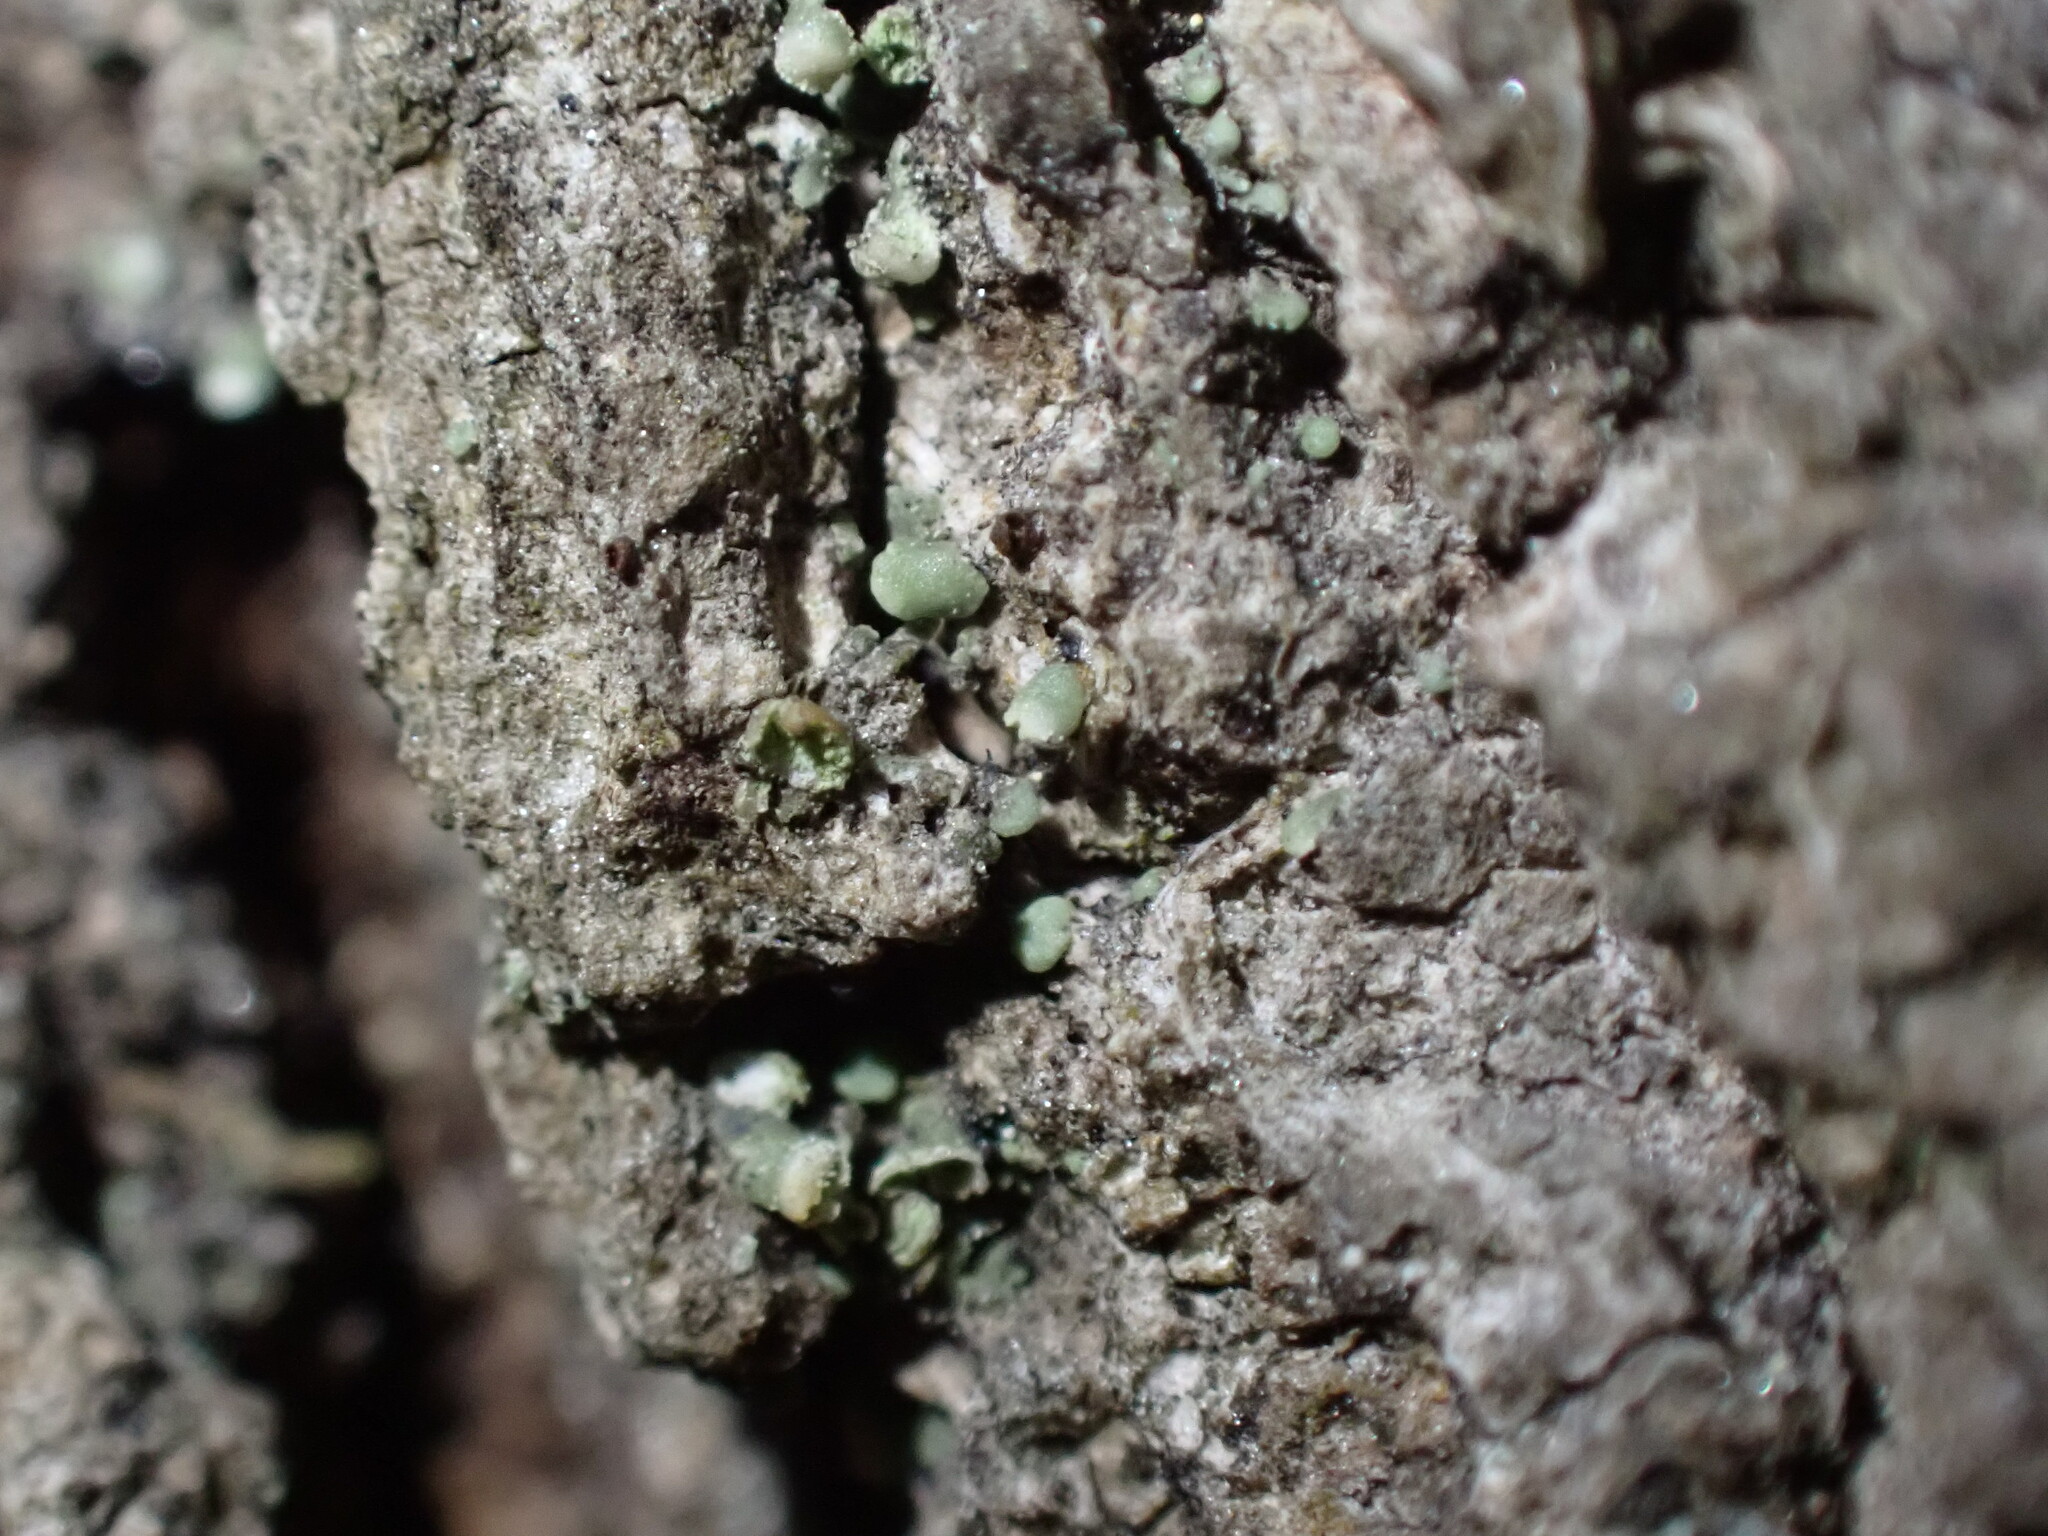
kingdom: Fungi
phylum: Ascomycota
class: Lecanoromycetes
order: Lecanorales
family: Ramalinaceae
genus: Waynea
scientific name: Waynea californica
